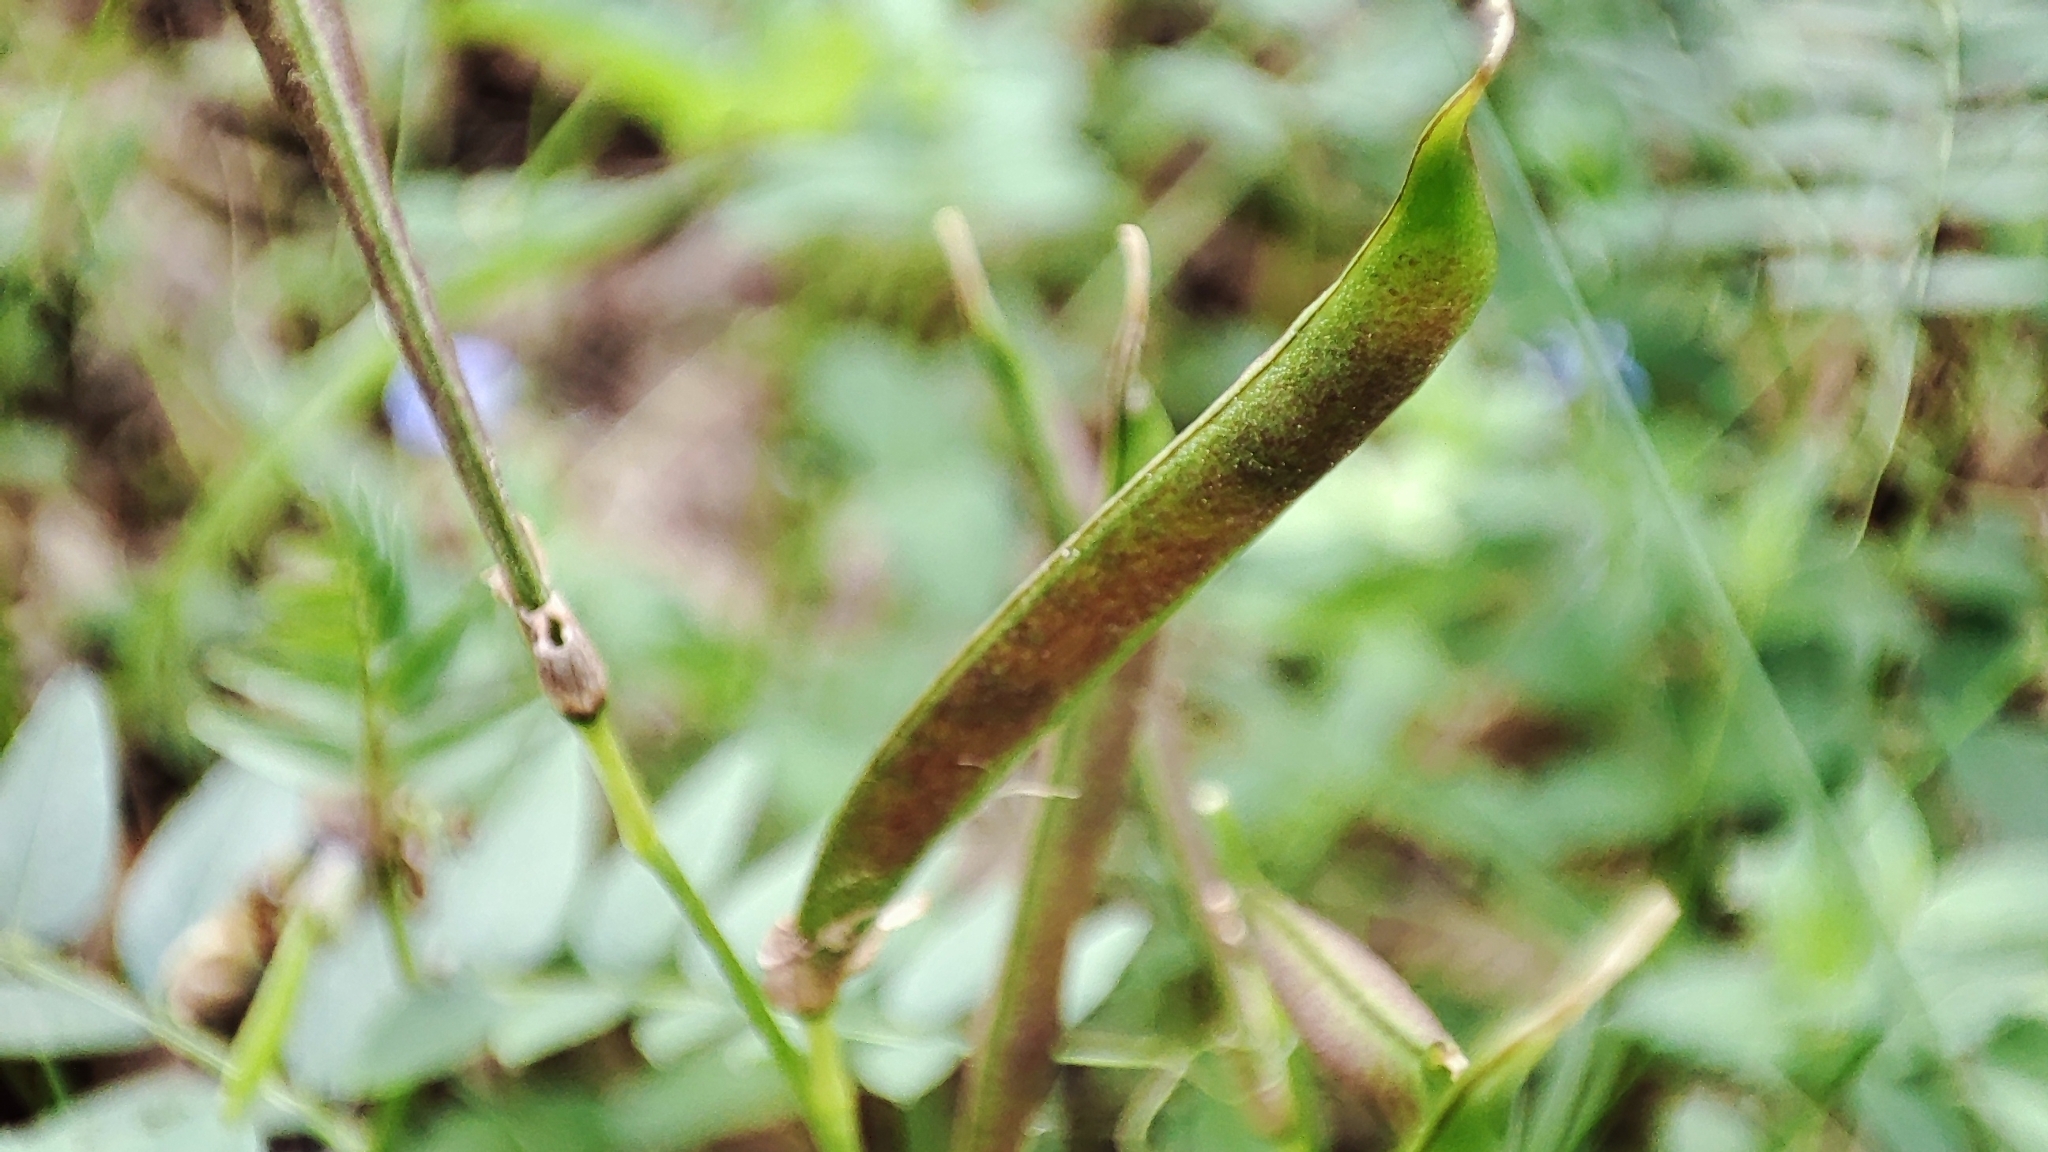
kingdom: Plantae
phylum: Tracheophyta
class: Magnoliopsida
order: Fabales
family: Fabaceae
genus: Lathyrus
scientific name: Lathyrus vernus
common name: Spring pea
